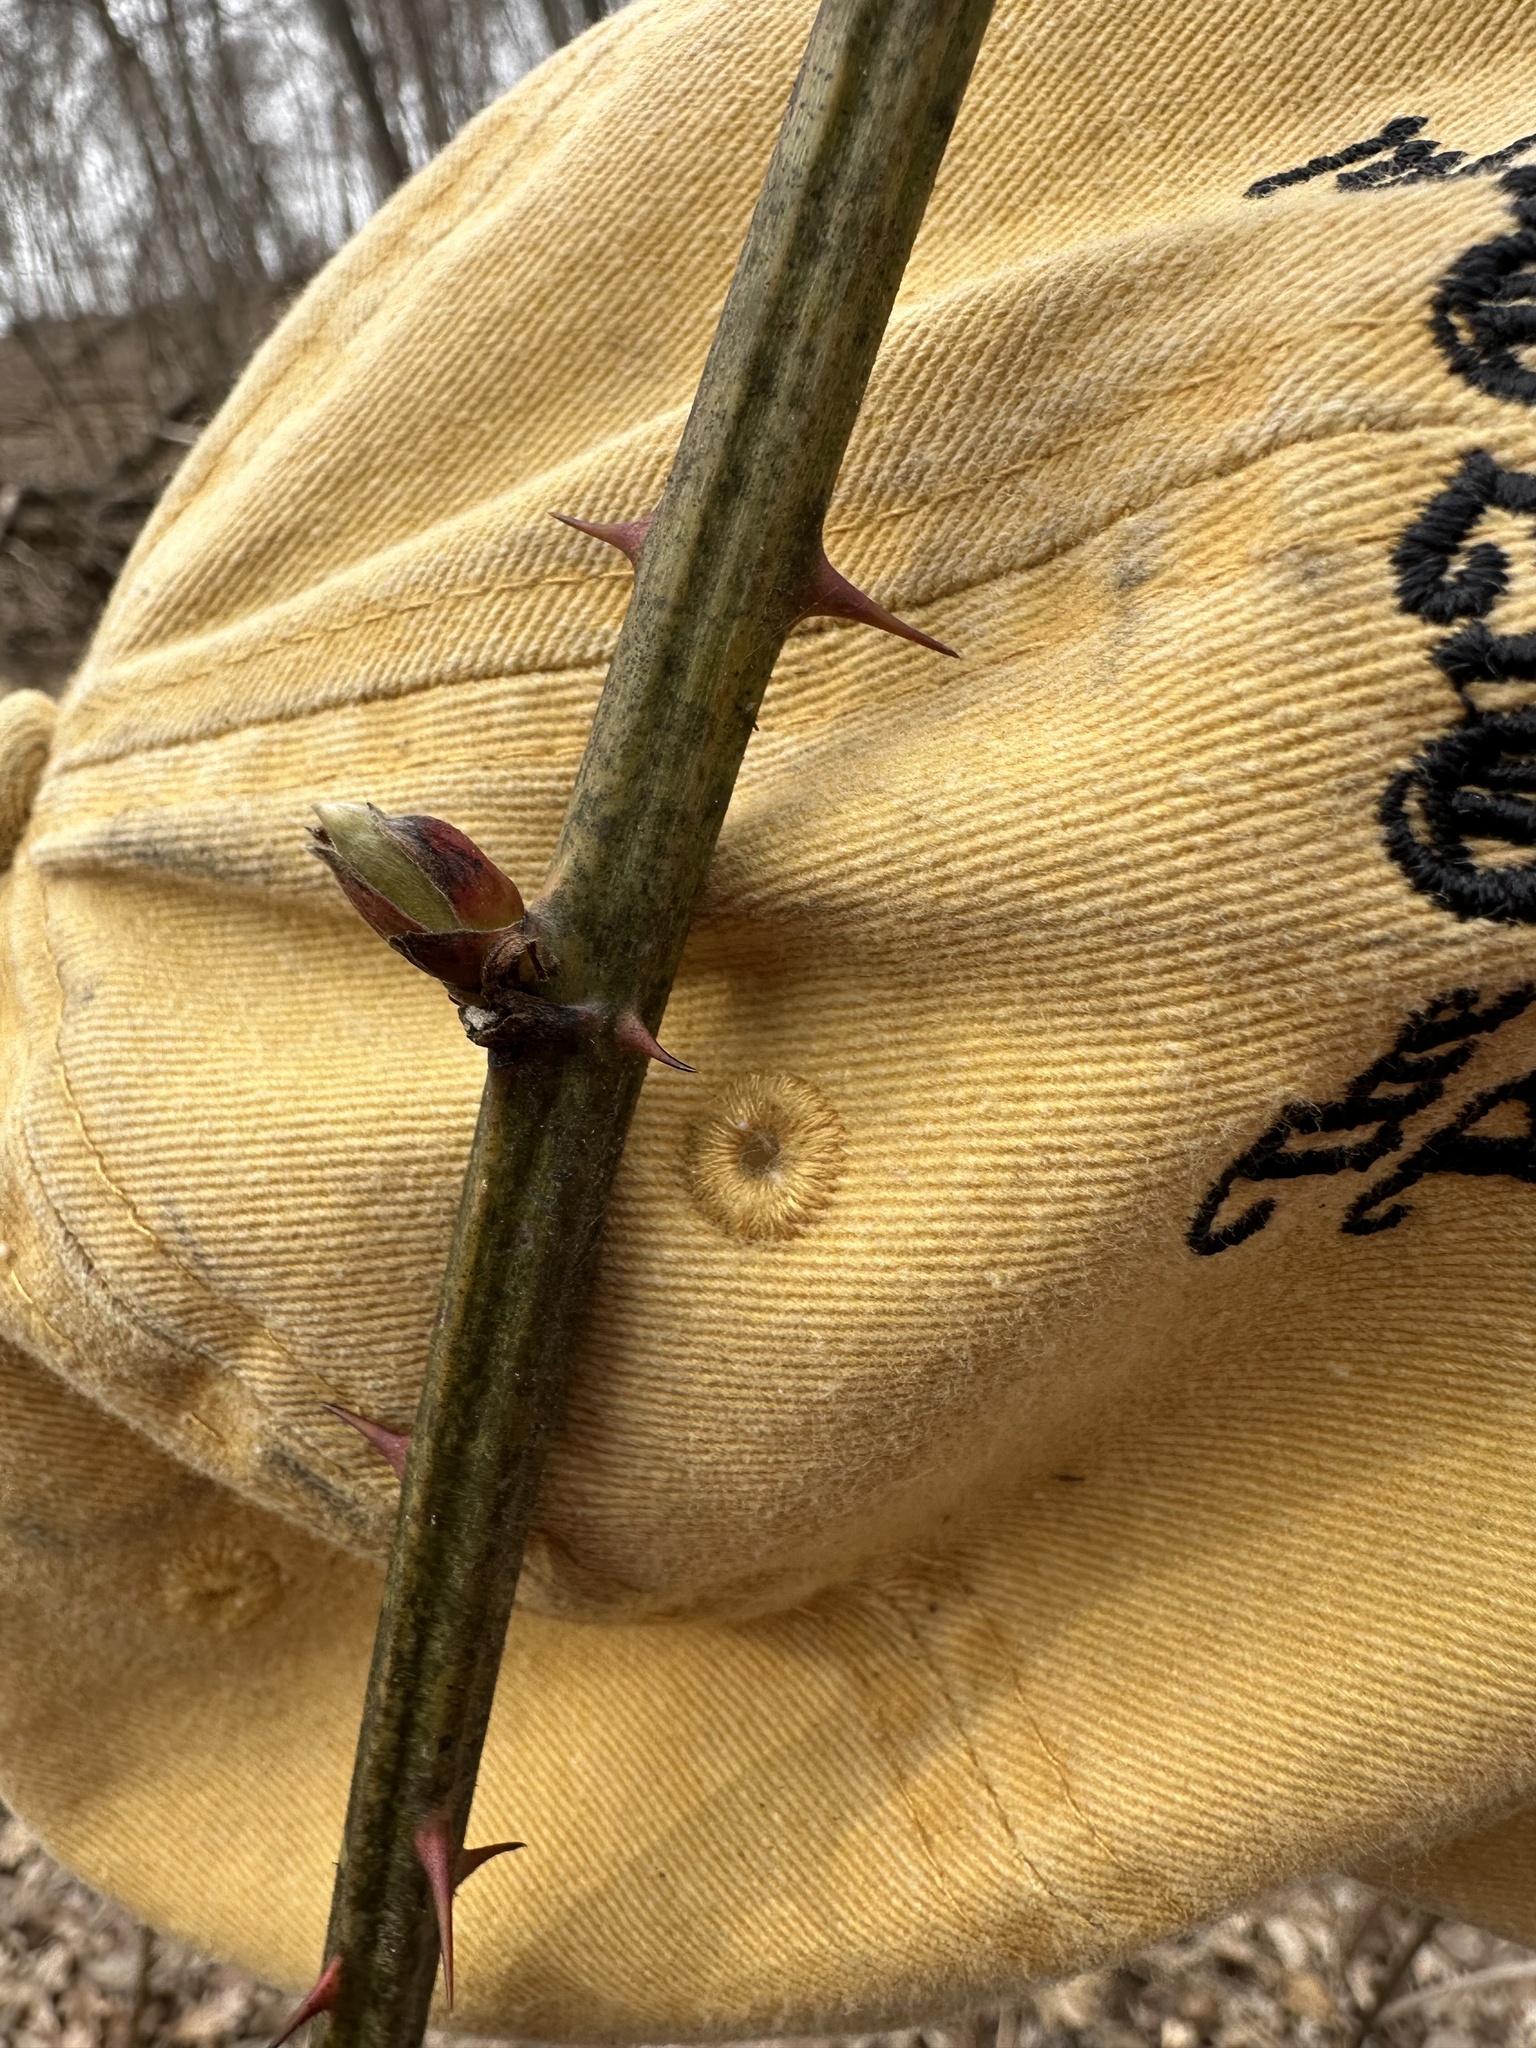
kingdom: Plantae
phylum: Tracheophyta
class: Magnoliopsida
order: Rosales
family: Rosaceae
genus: Rubus
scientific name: Rubus allegheniensis
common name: Allegheny blackberry
